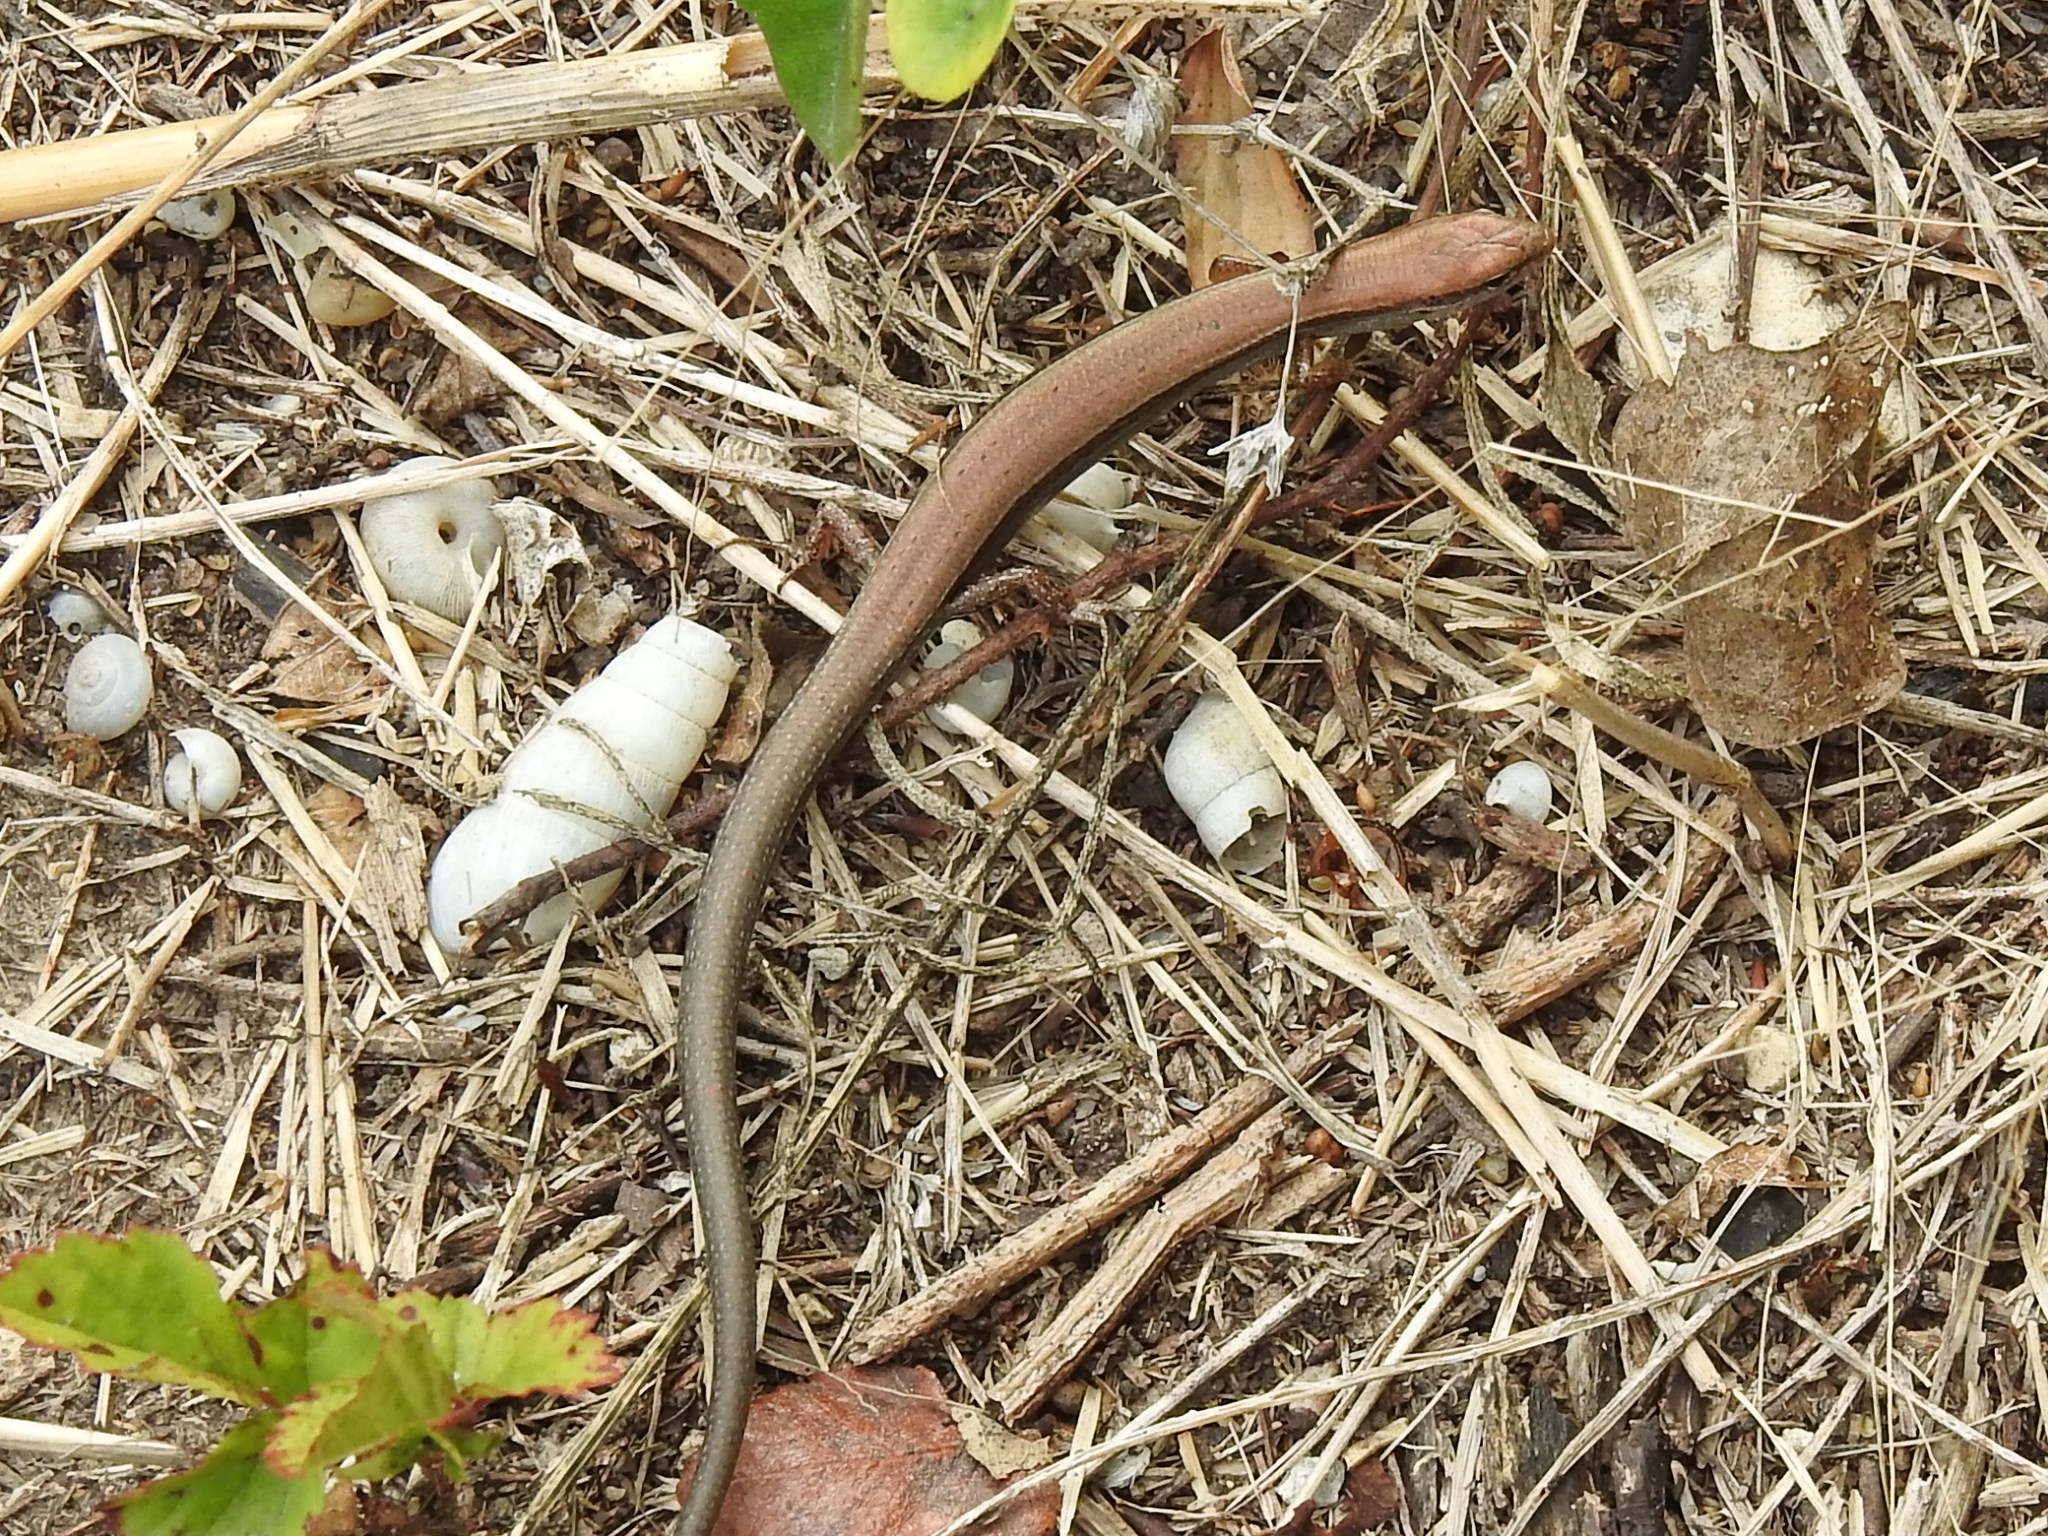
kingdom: Animalia
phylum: Chordata
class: Squamata
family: Scincidae
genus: Scincella
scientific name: Scincella lateralis
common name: Ground skink
